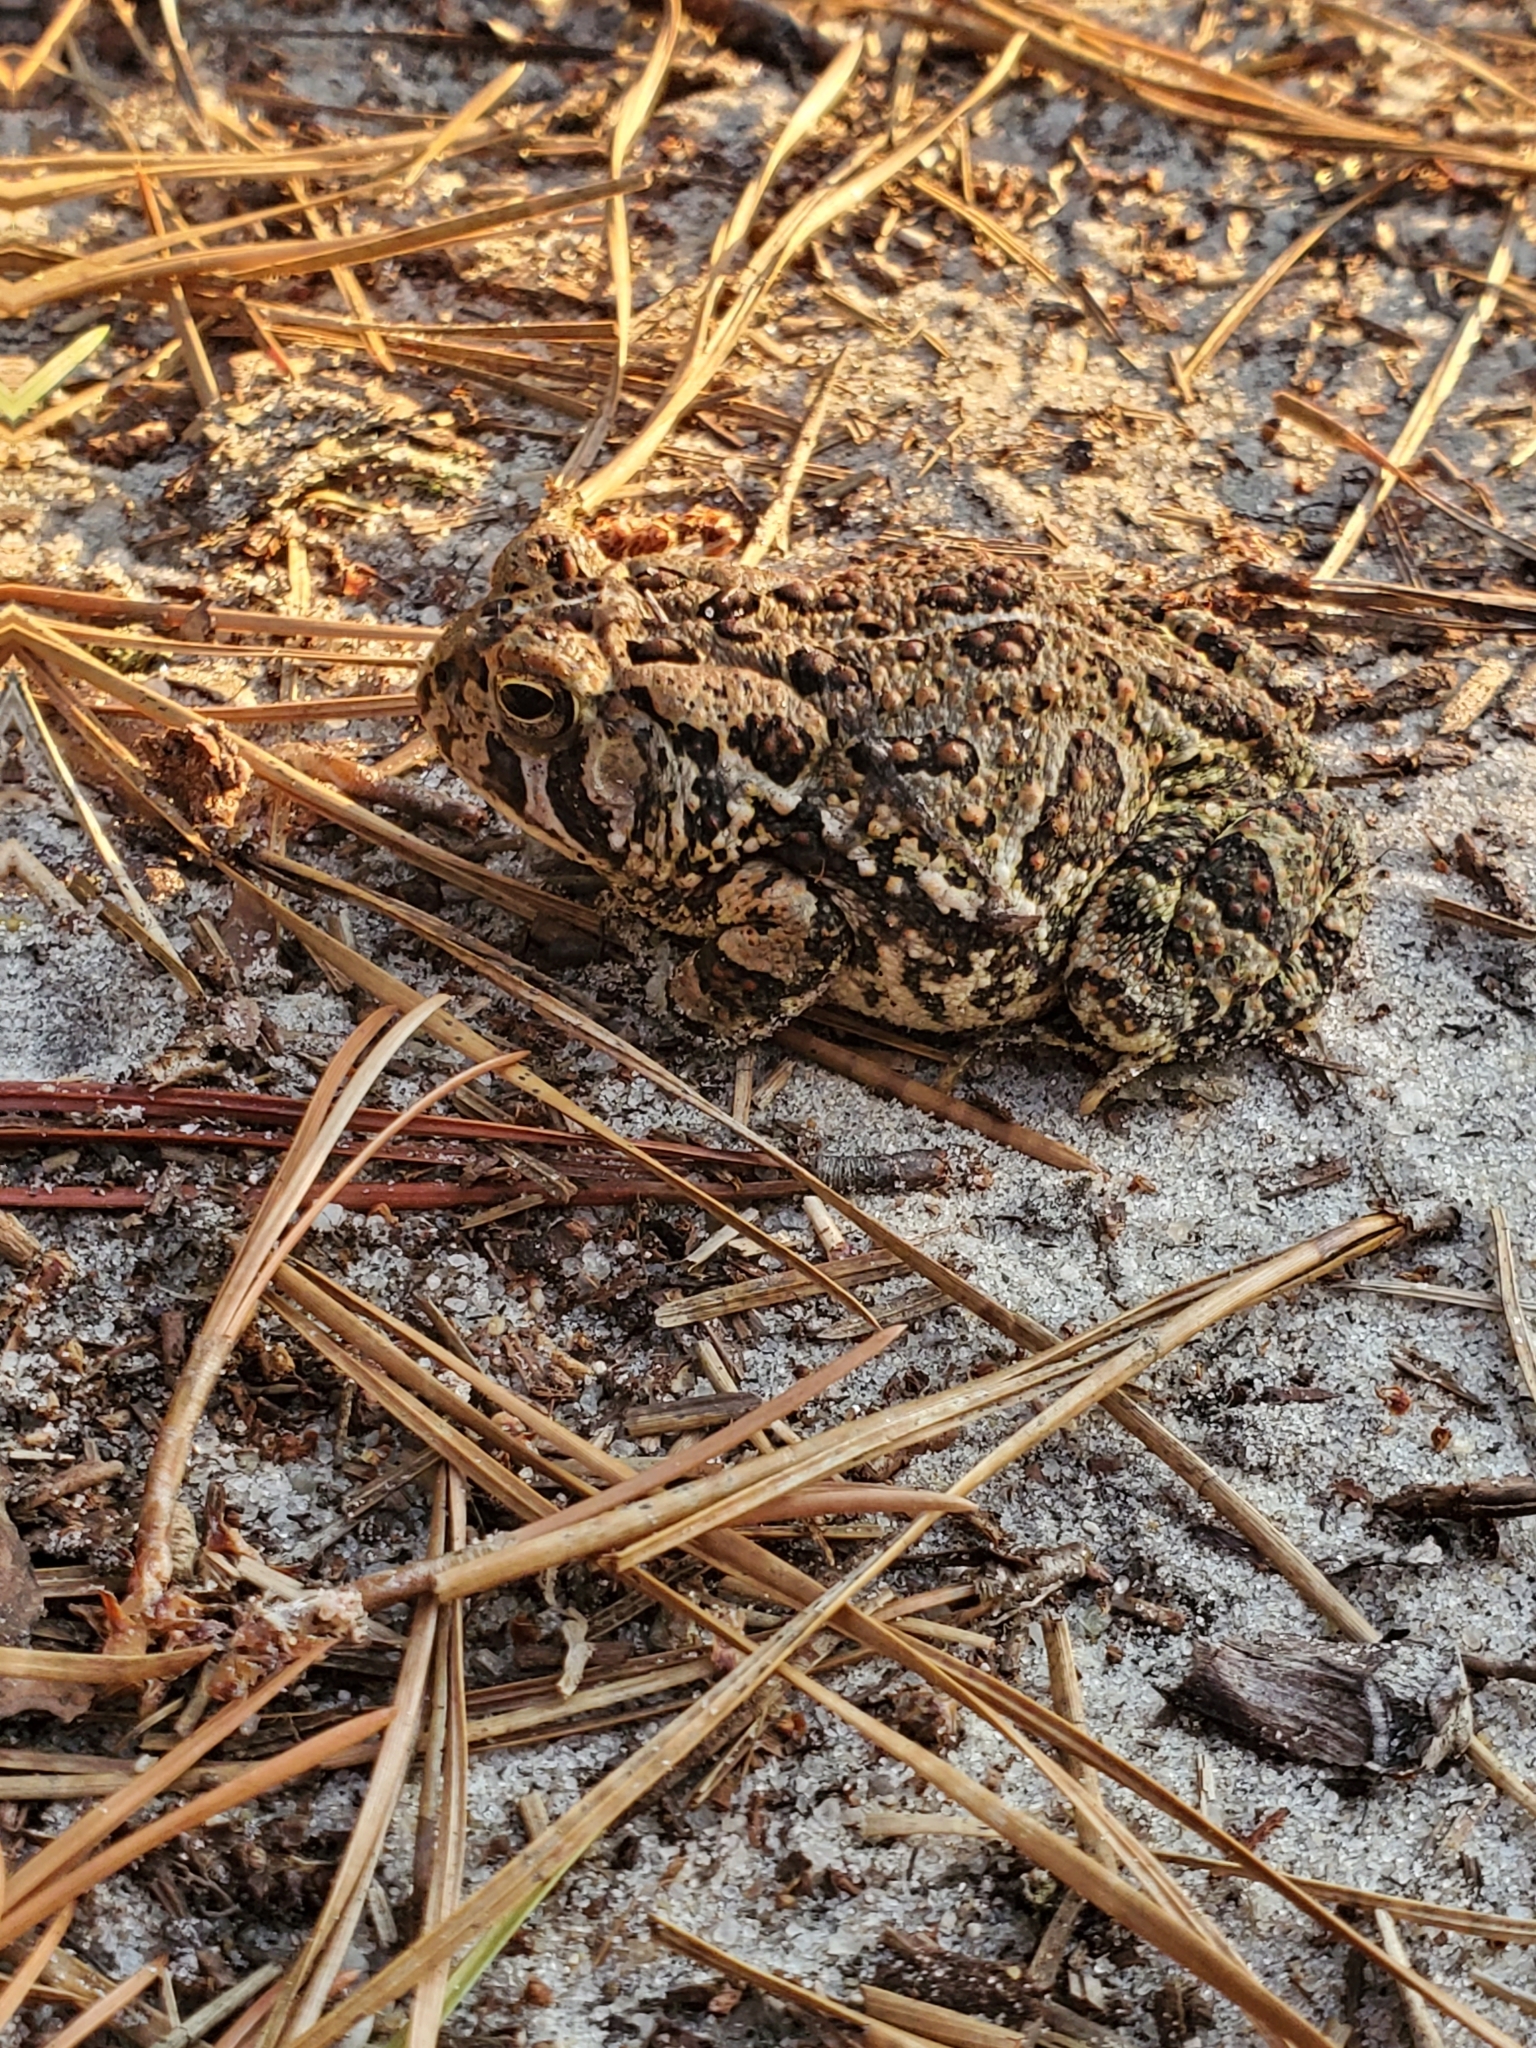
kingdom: Animalia
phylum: Chordata
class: Amphibia
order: Anura
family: Bufonidae
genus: Anaxyrus
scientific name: Anaxyrus fowleri
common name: Fowler's toad
